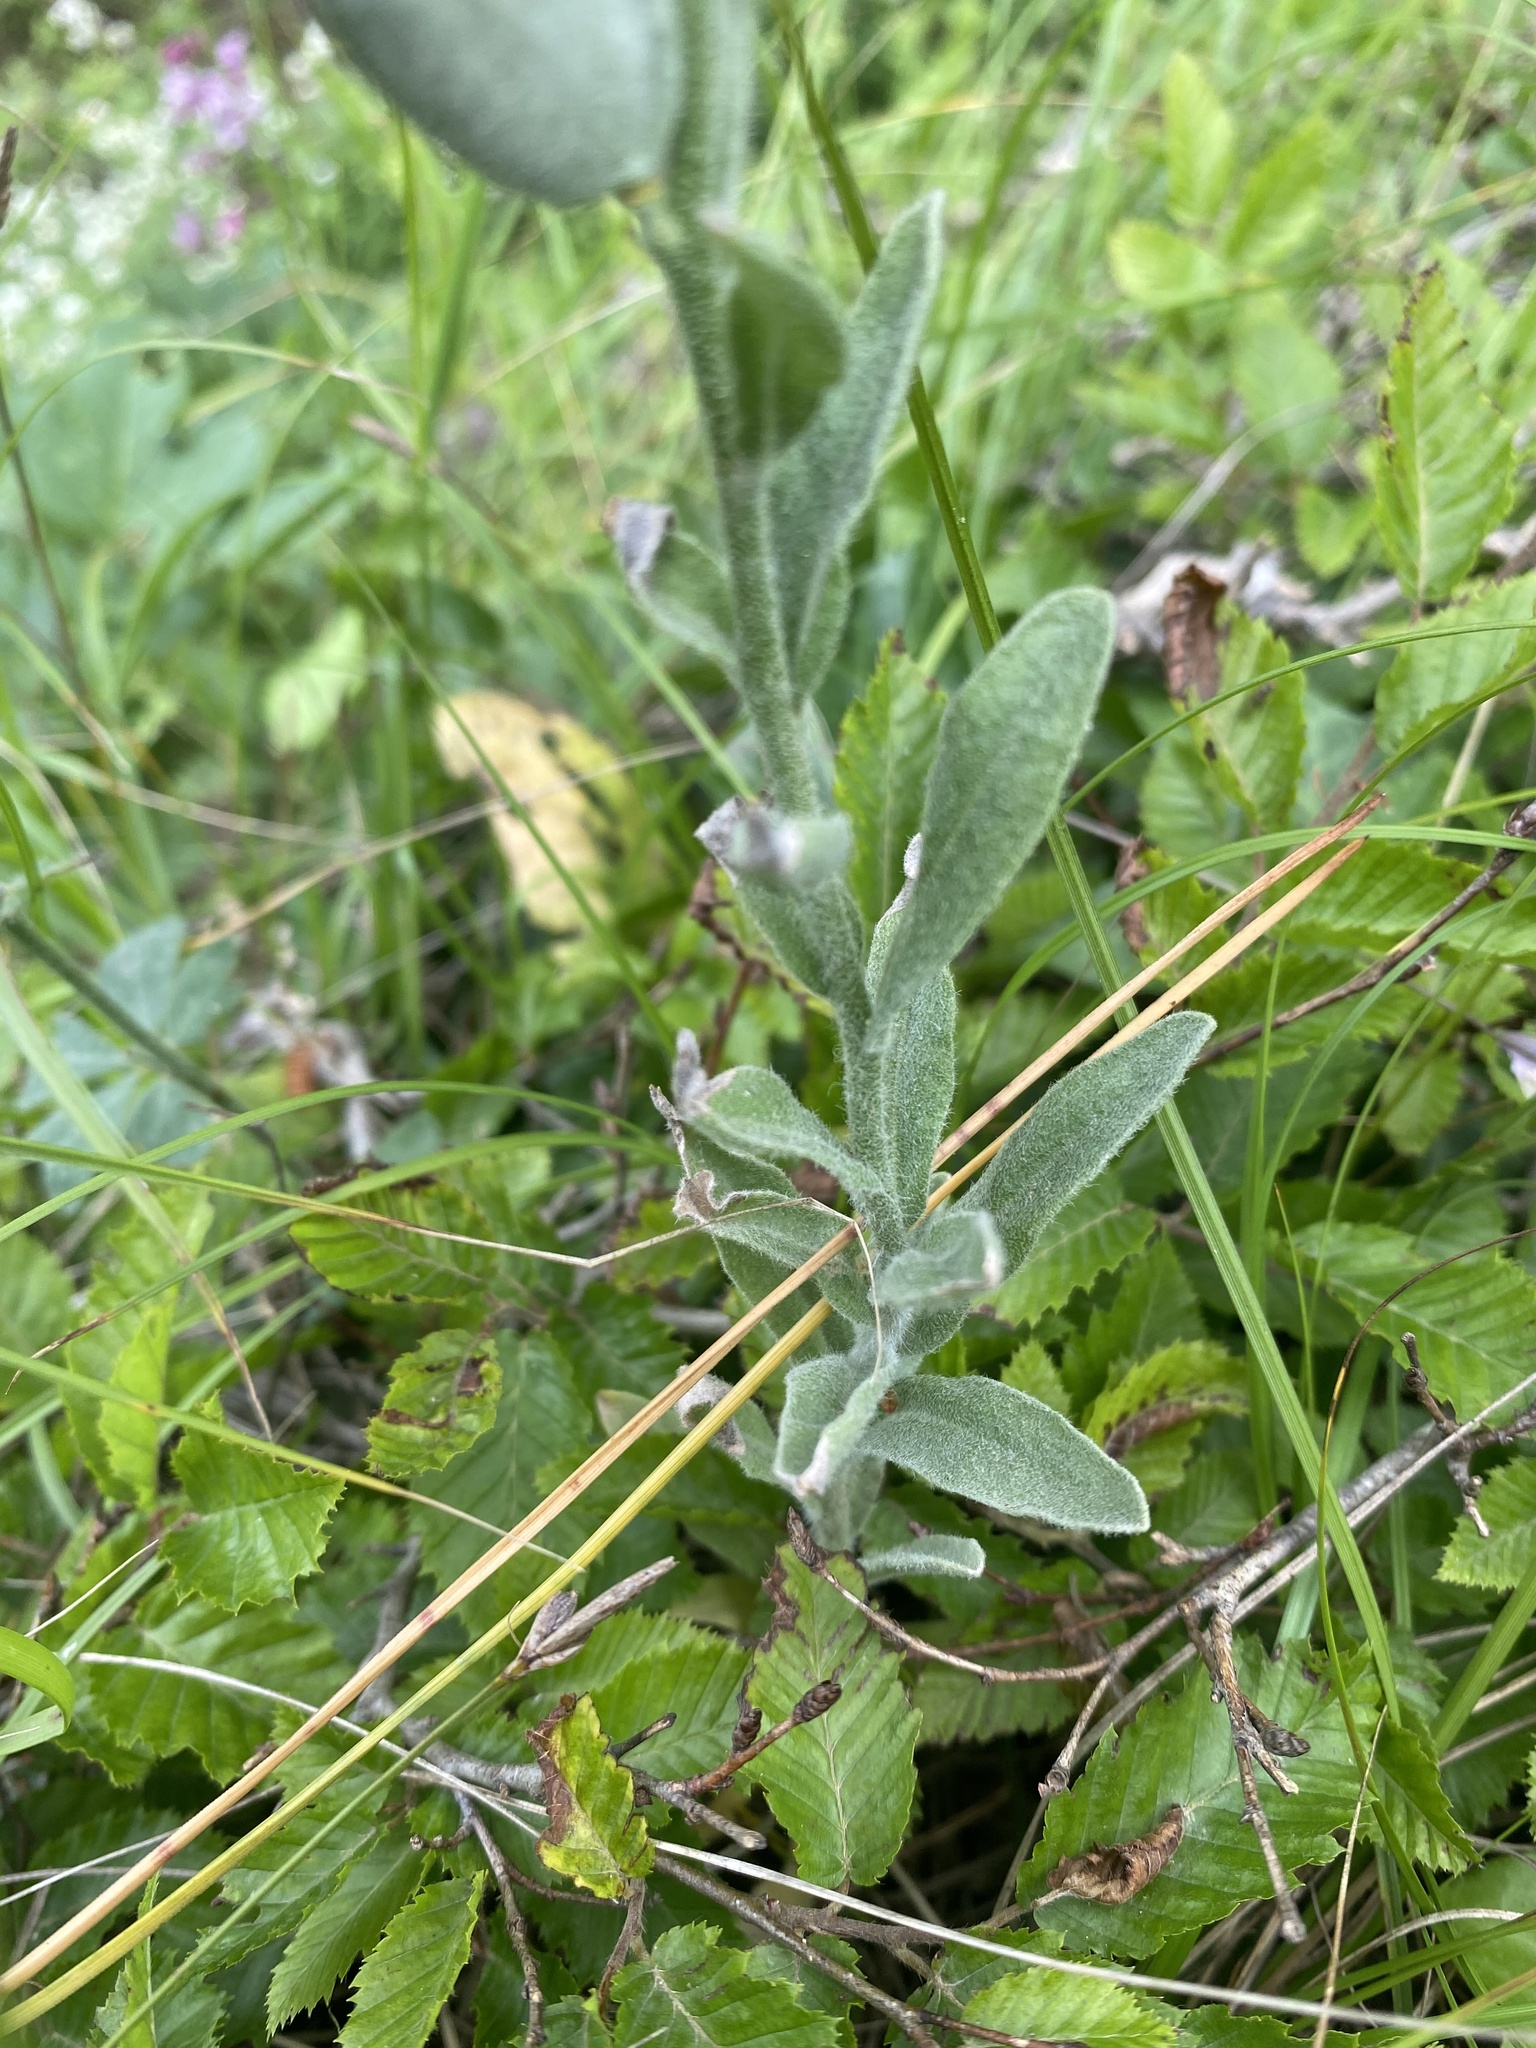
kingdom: Plantae
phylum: Tracheophyta
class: Magnoliopsida
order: Brassicales
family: Brassicaceae
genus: Fibigia
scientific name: Fibigia clypeata
